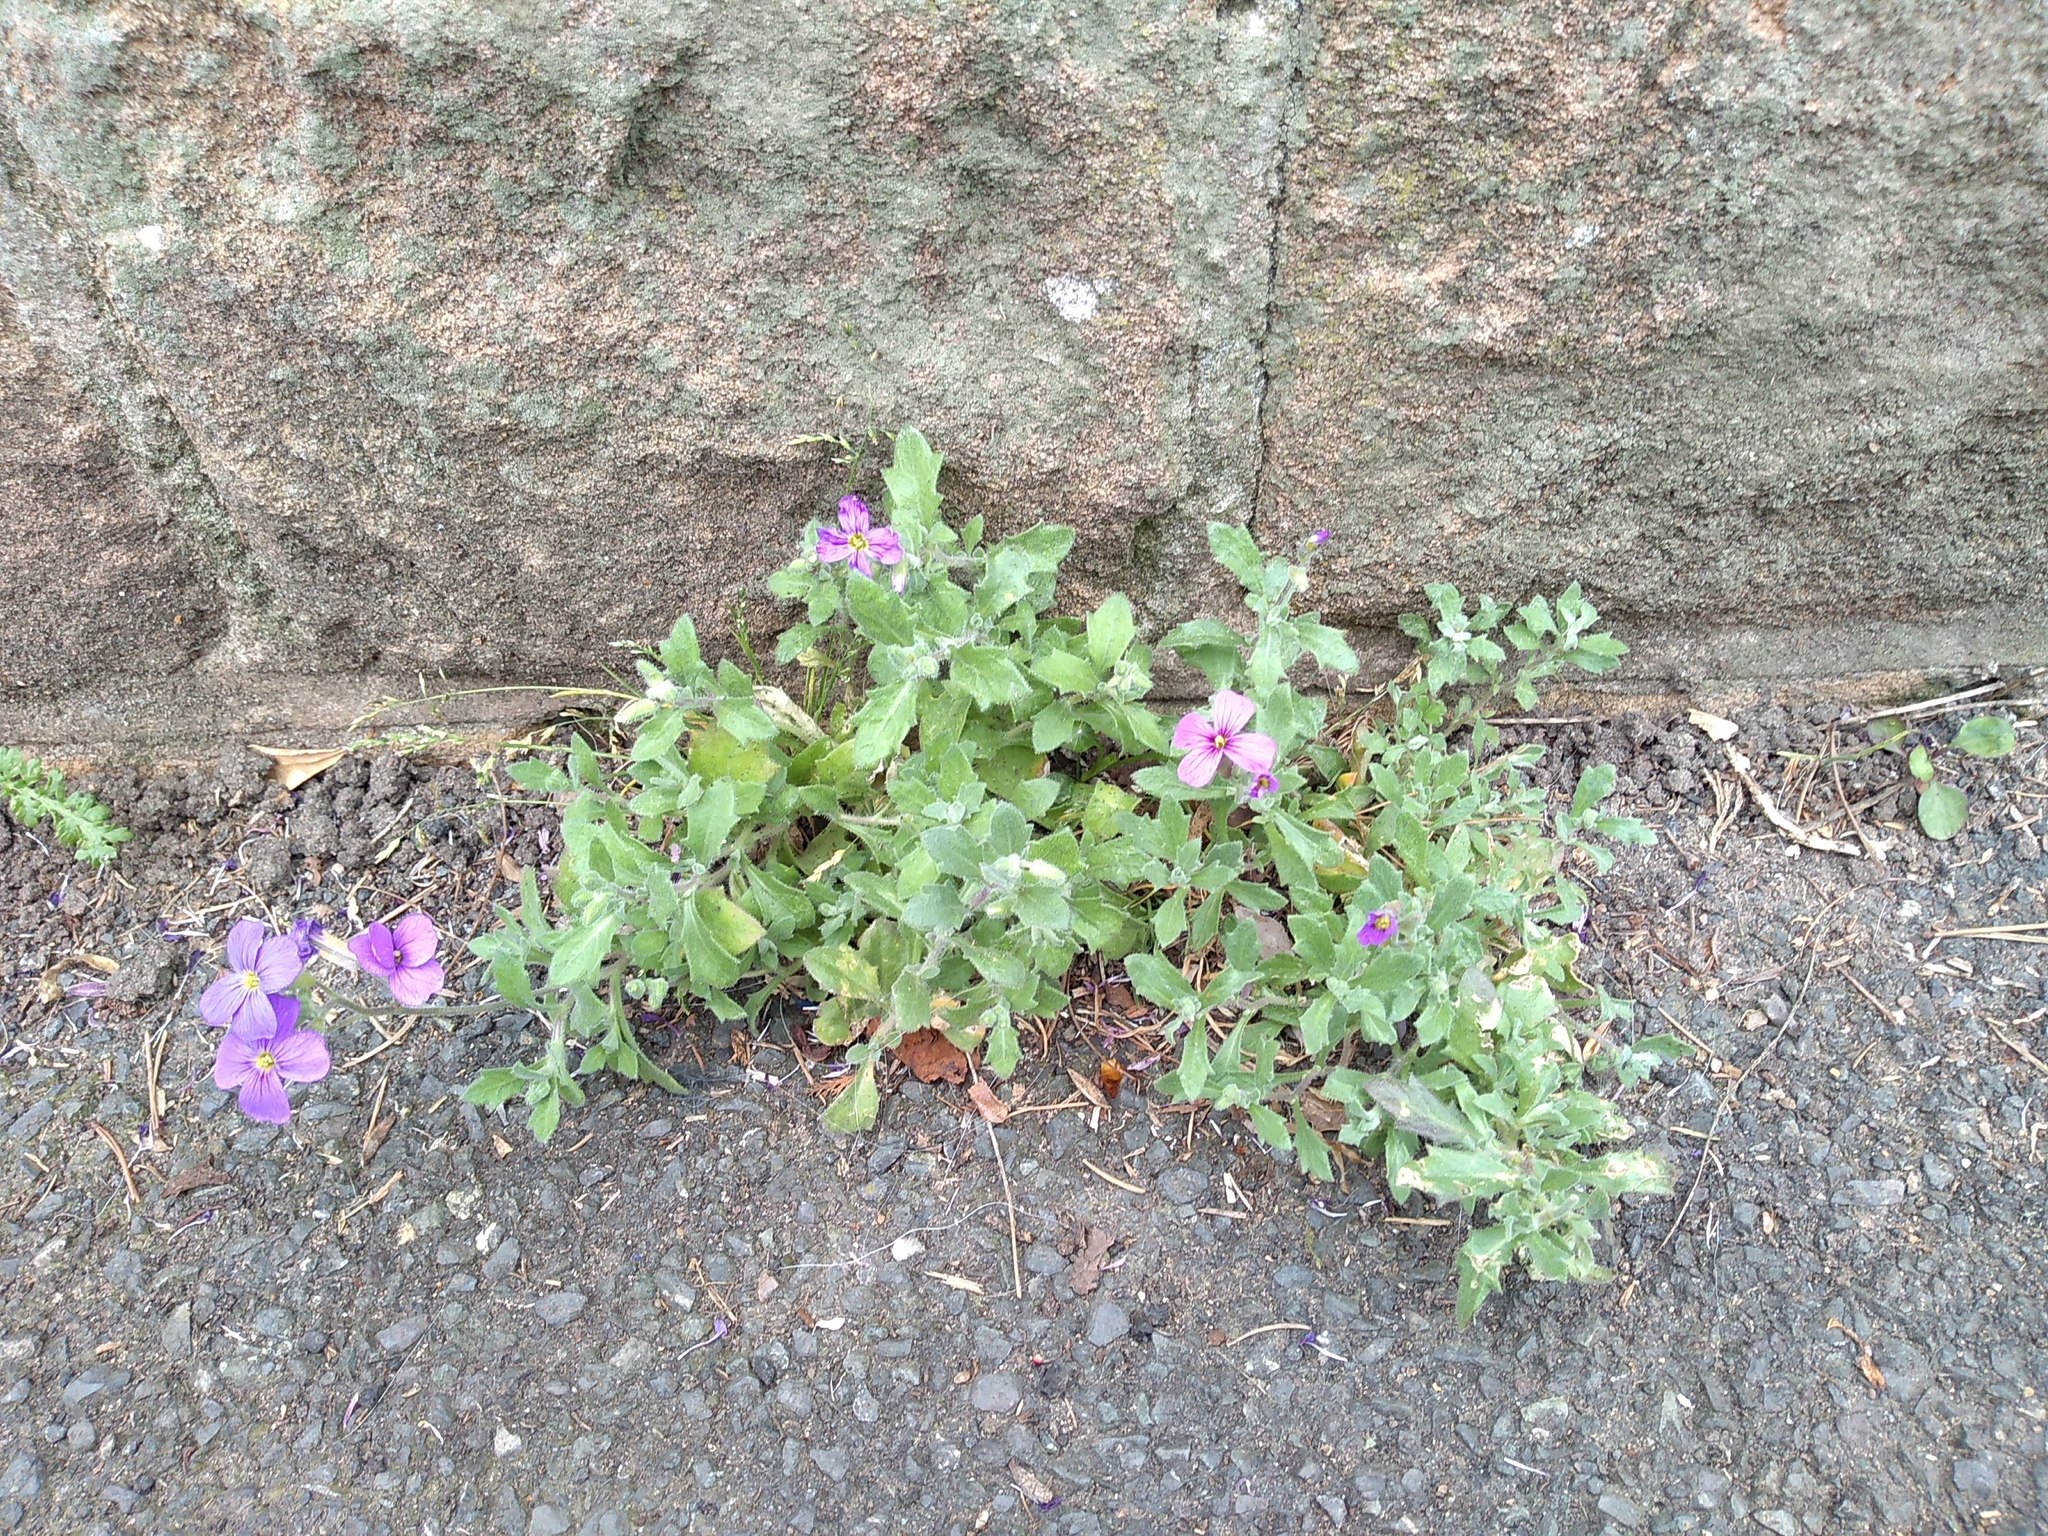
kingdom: Plantae
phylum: Tracheophyta
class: Magnoliopsida
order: Brassicales
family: Brassicaceae
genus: Aubrieta
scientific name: Aubrieta deltoidea
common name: Aubretia
